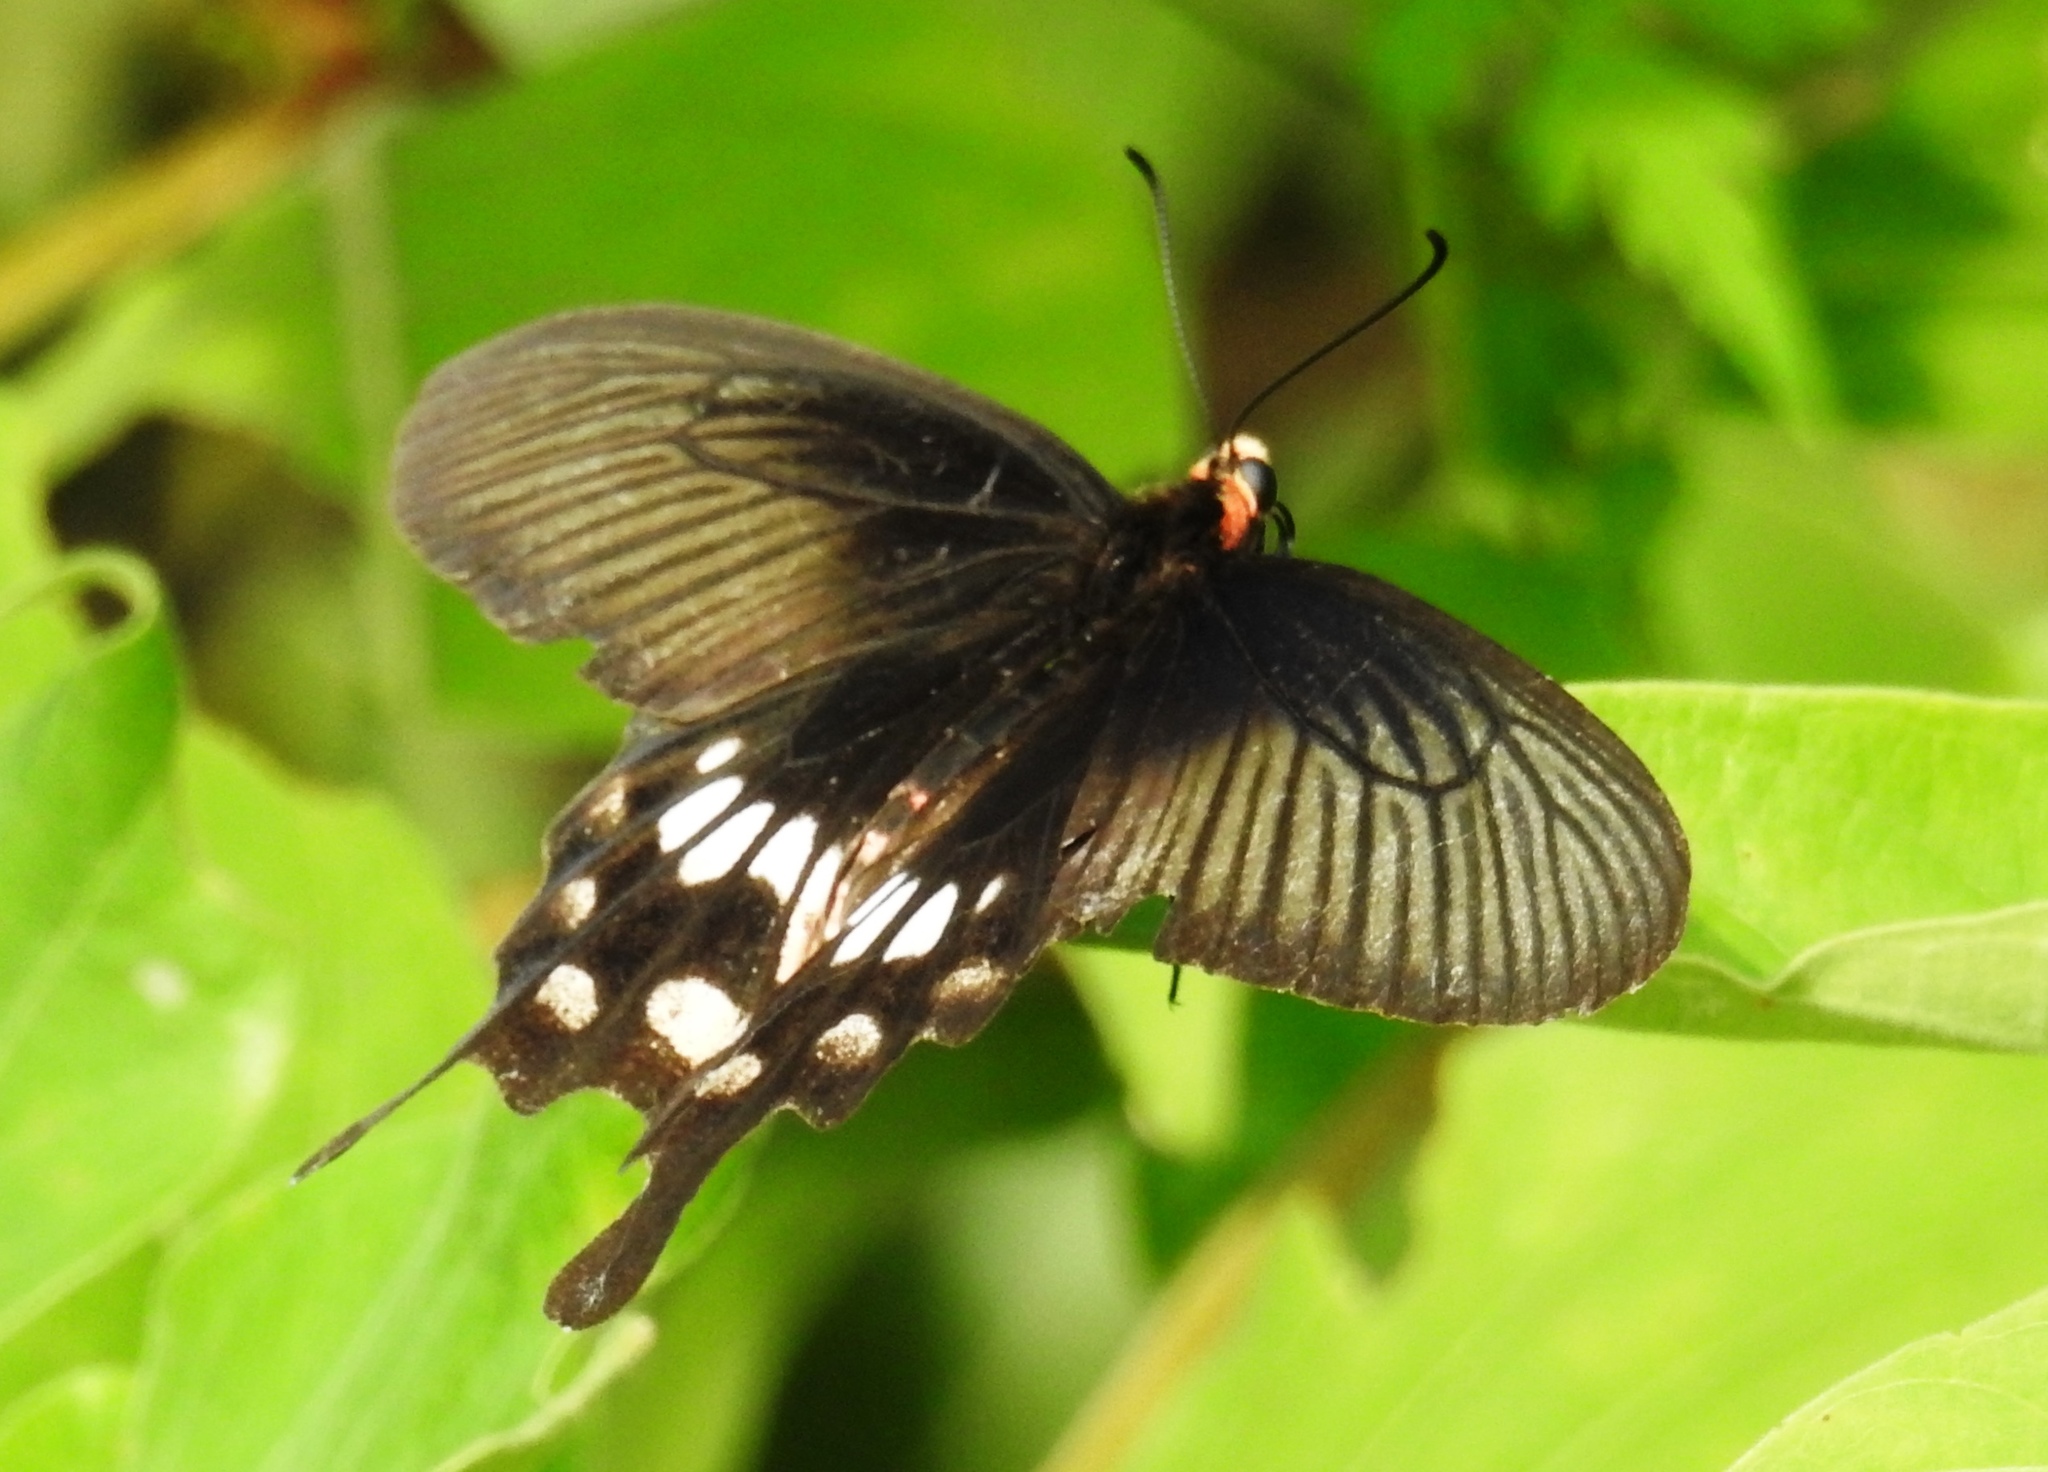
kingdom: Animalia
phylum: Arthropoda
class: Insecta
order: Lepidoptera
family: Papilionidae
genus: Pachliopta
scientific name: Pachliopta aristolochiae
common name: Common rose
